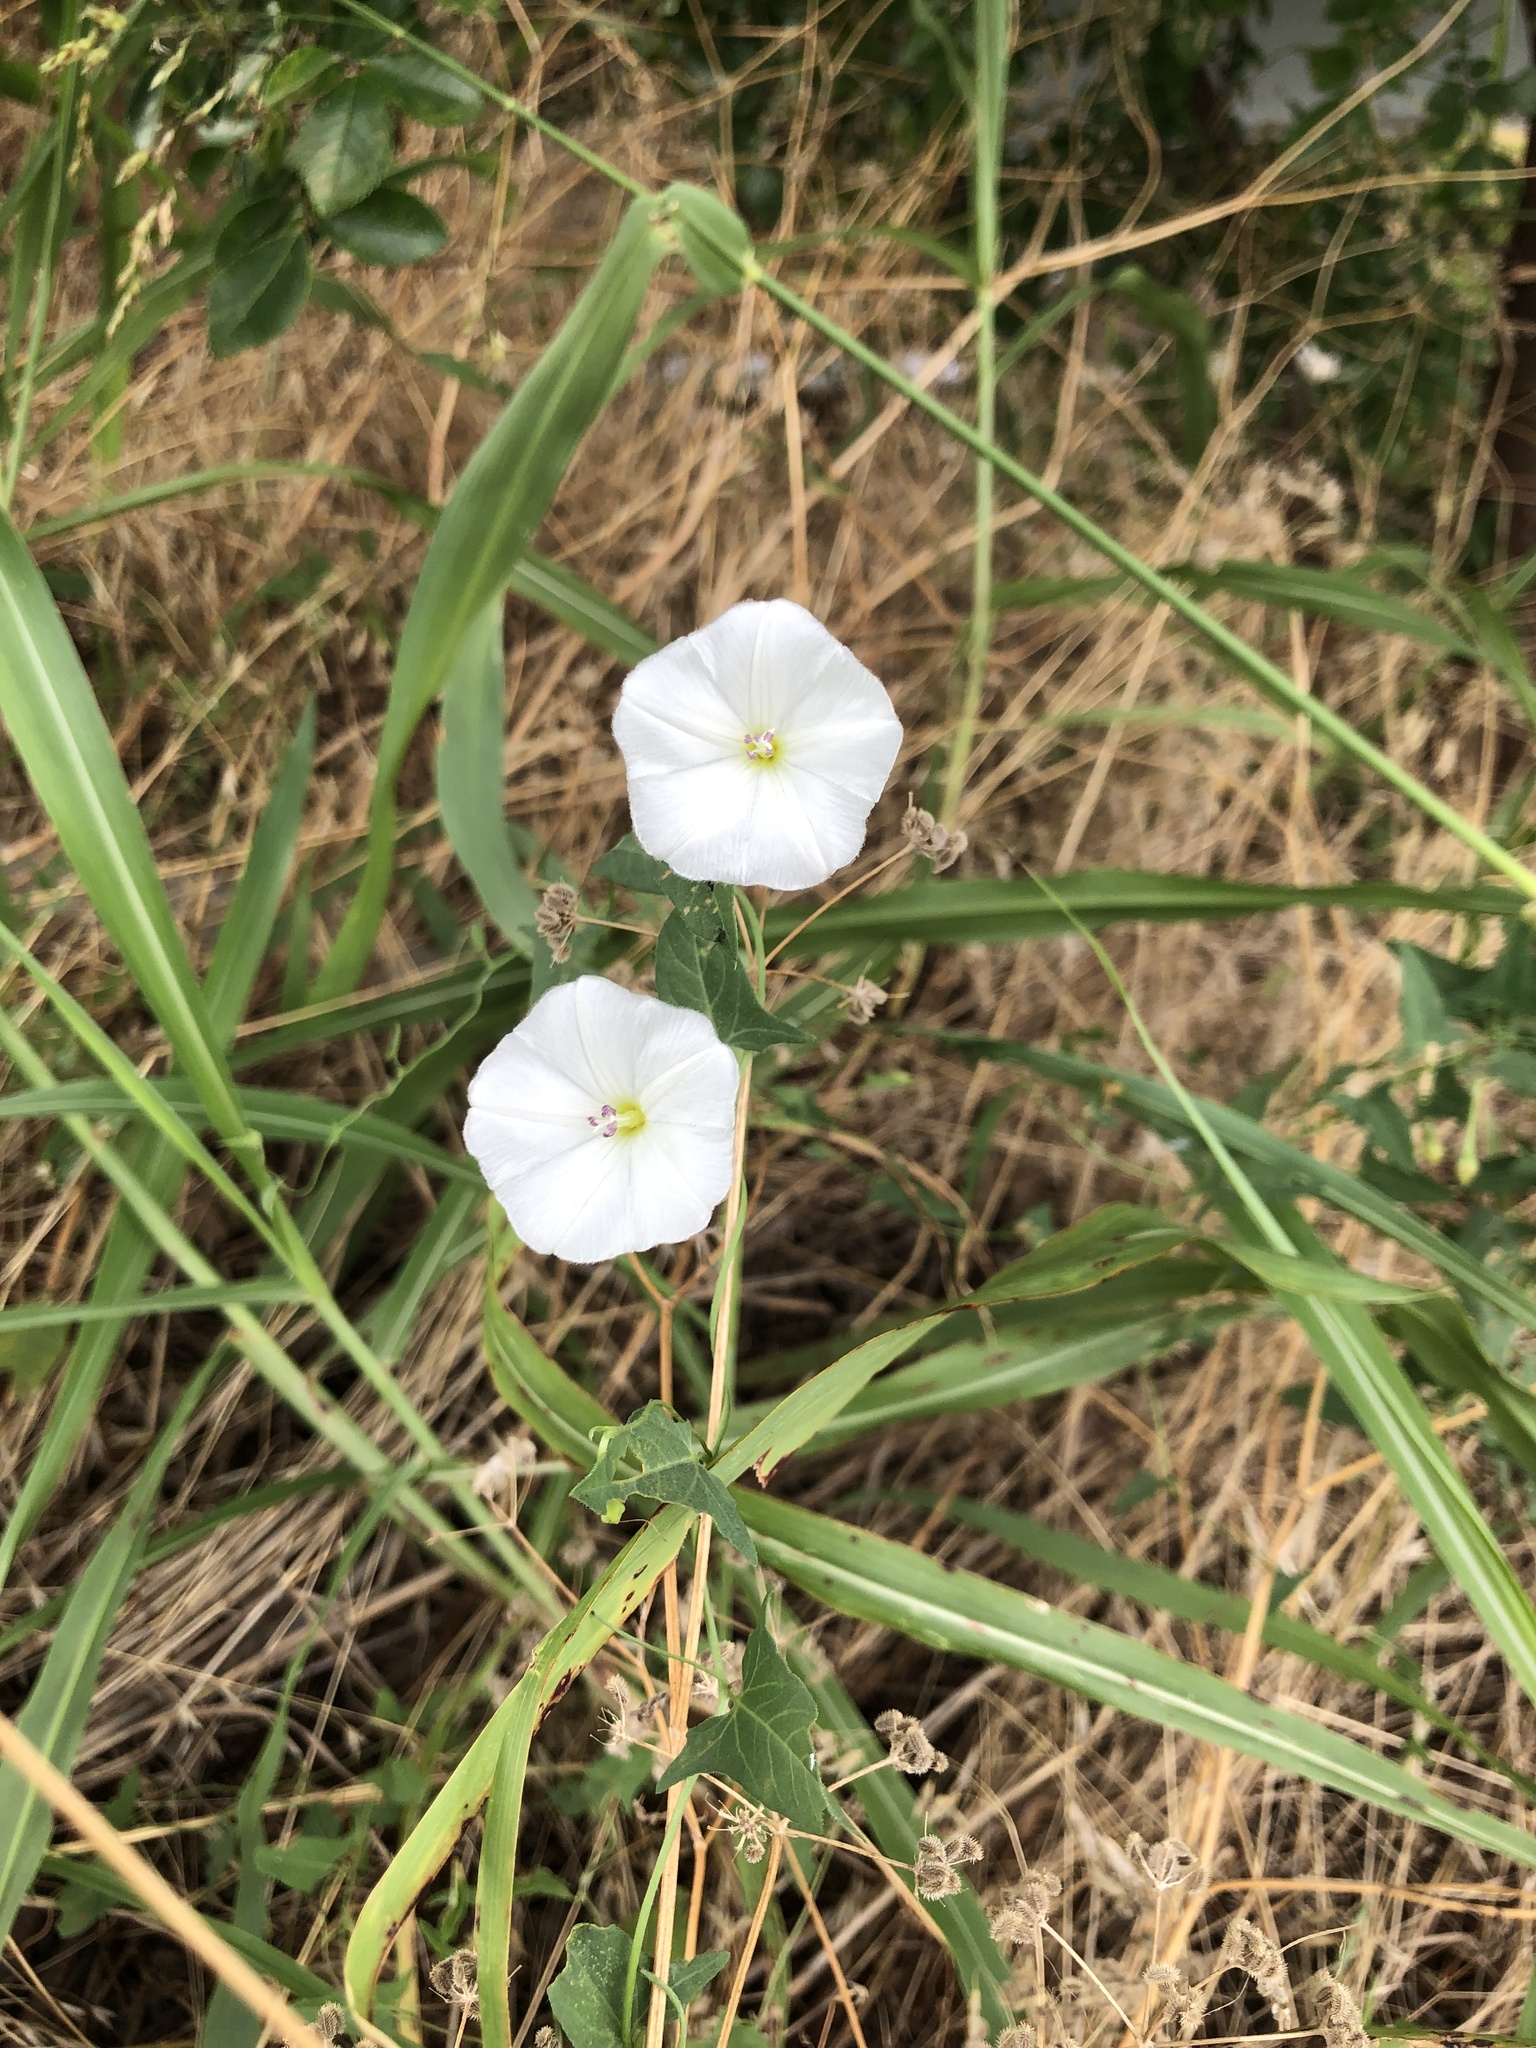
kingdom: Plantae
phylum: Tracheophyta
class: Magnoliopsida
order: Solanales
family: Convolvulaceae
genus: Convolvulus
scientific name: Convolvulus arvensis
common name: Field bindweed
